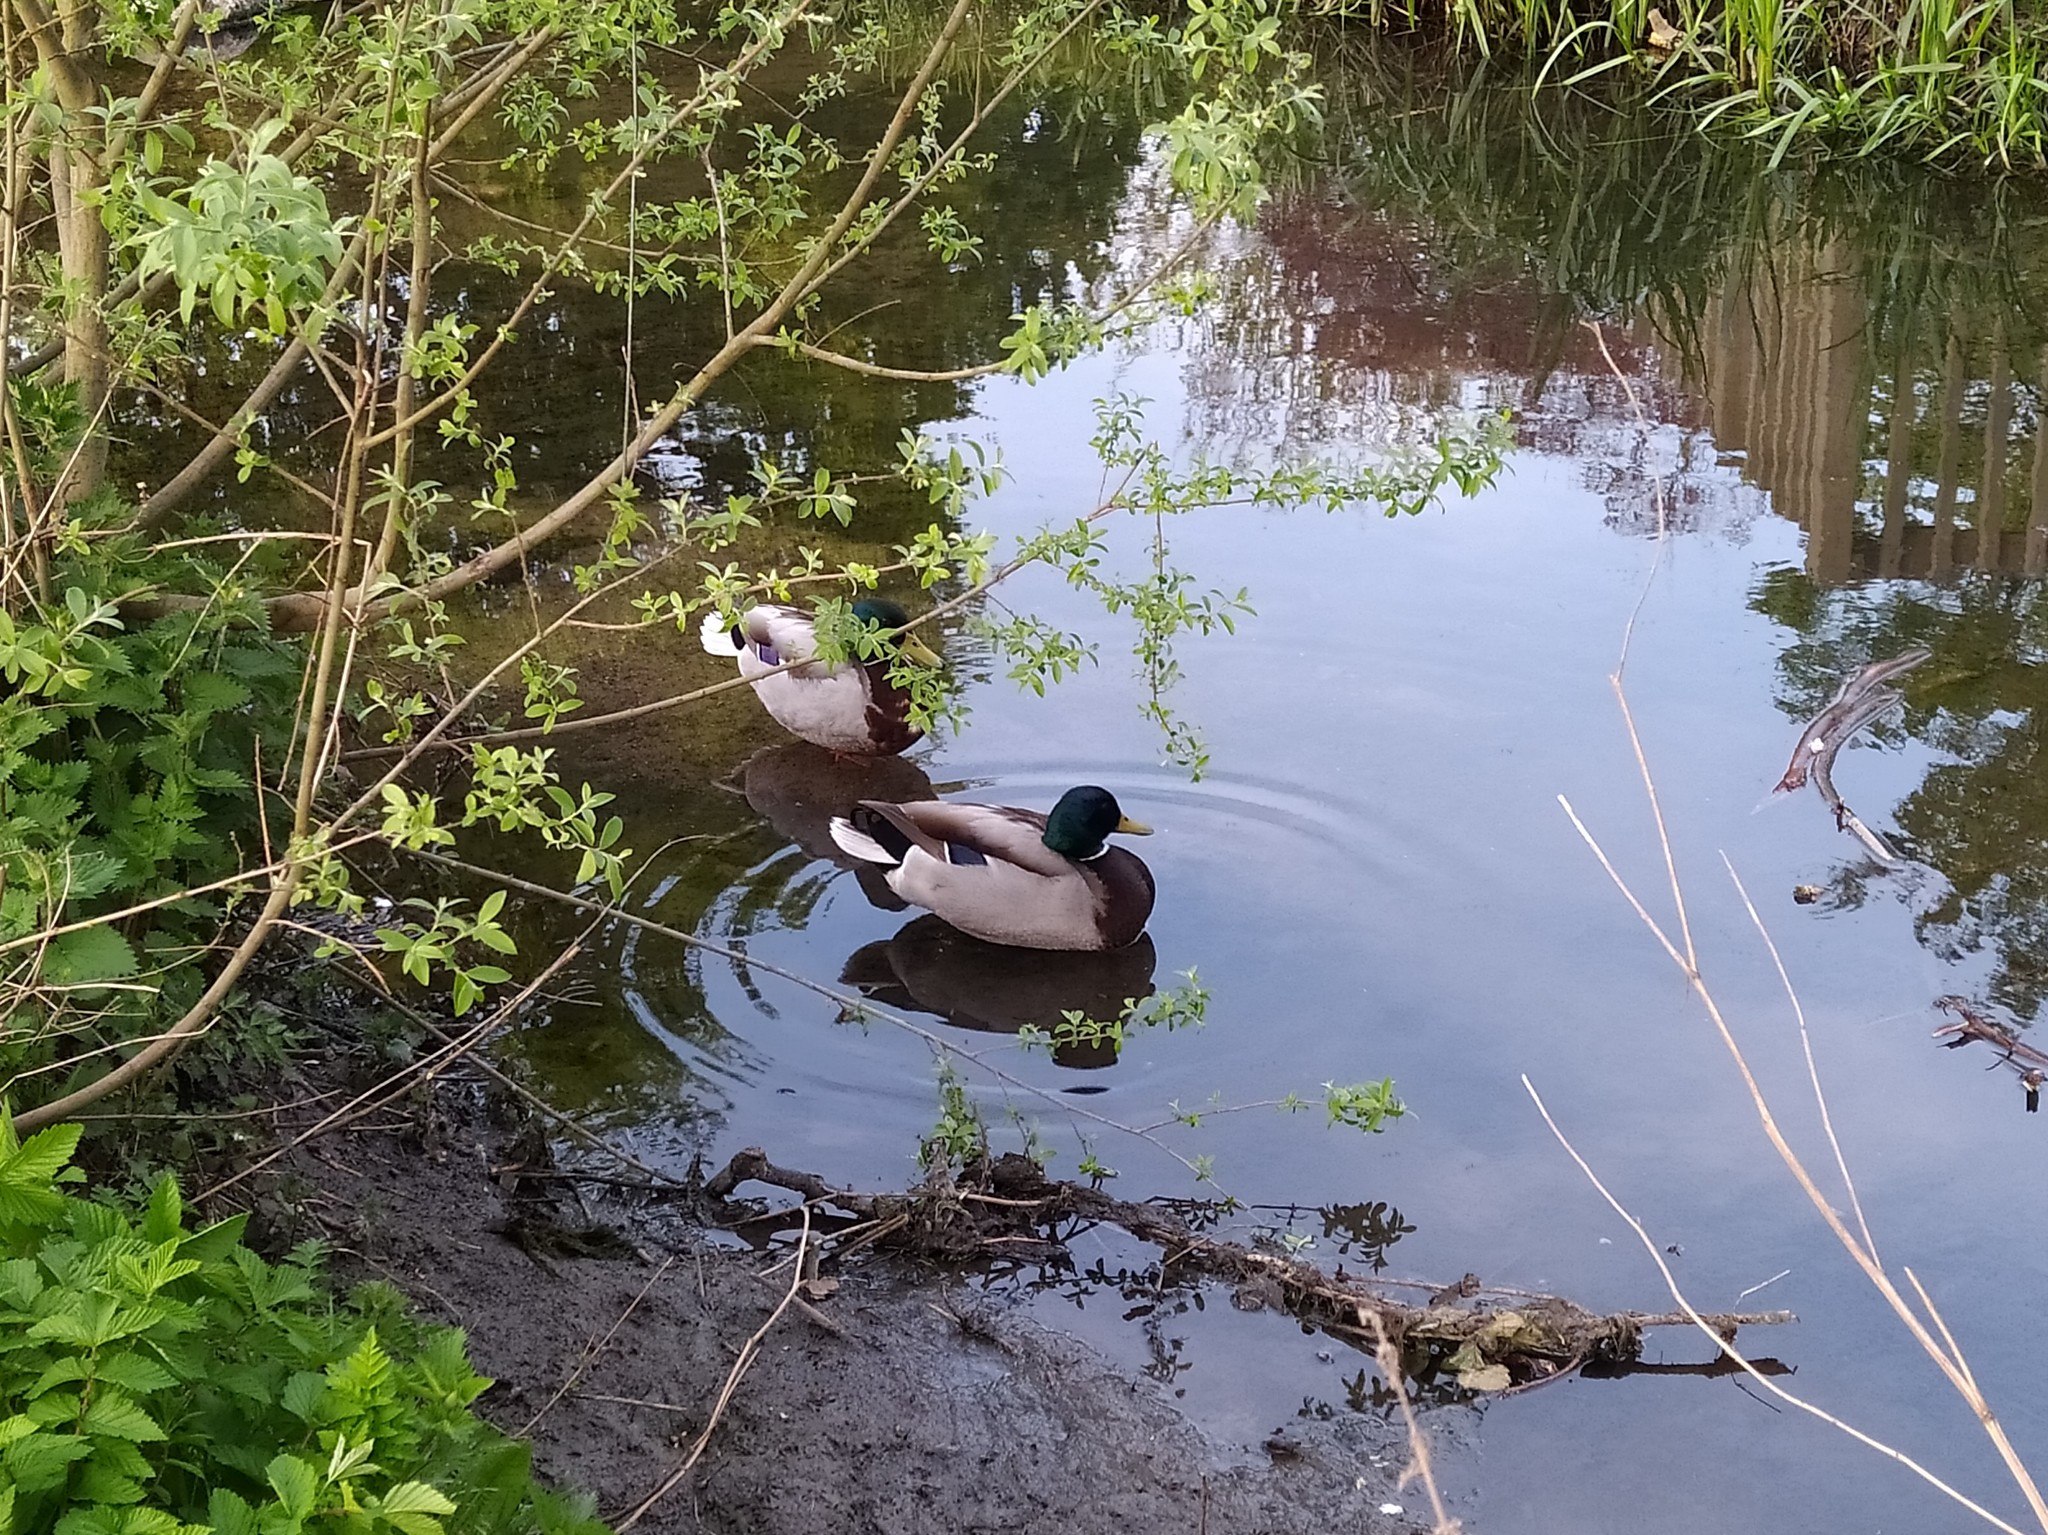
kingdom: Animalia
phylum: Chordata
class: Aves
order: Anseriformes
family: Anatidae
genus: Anas
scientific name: Anas platyrhynchos
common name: Mallard
